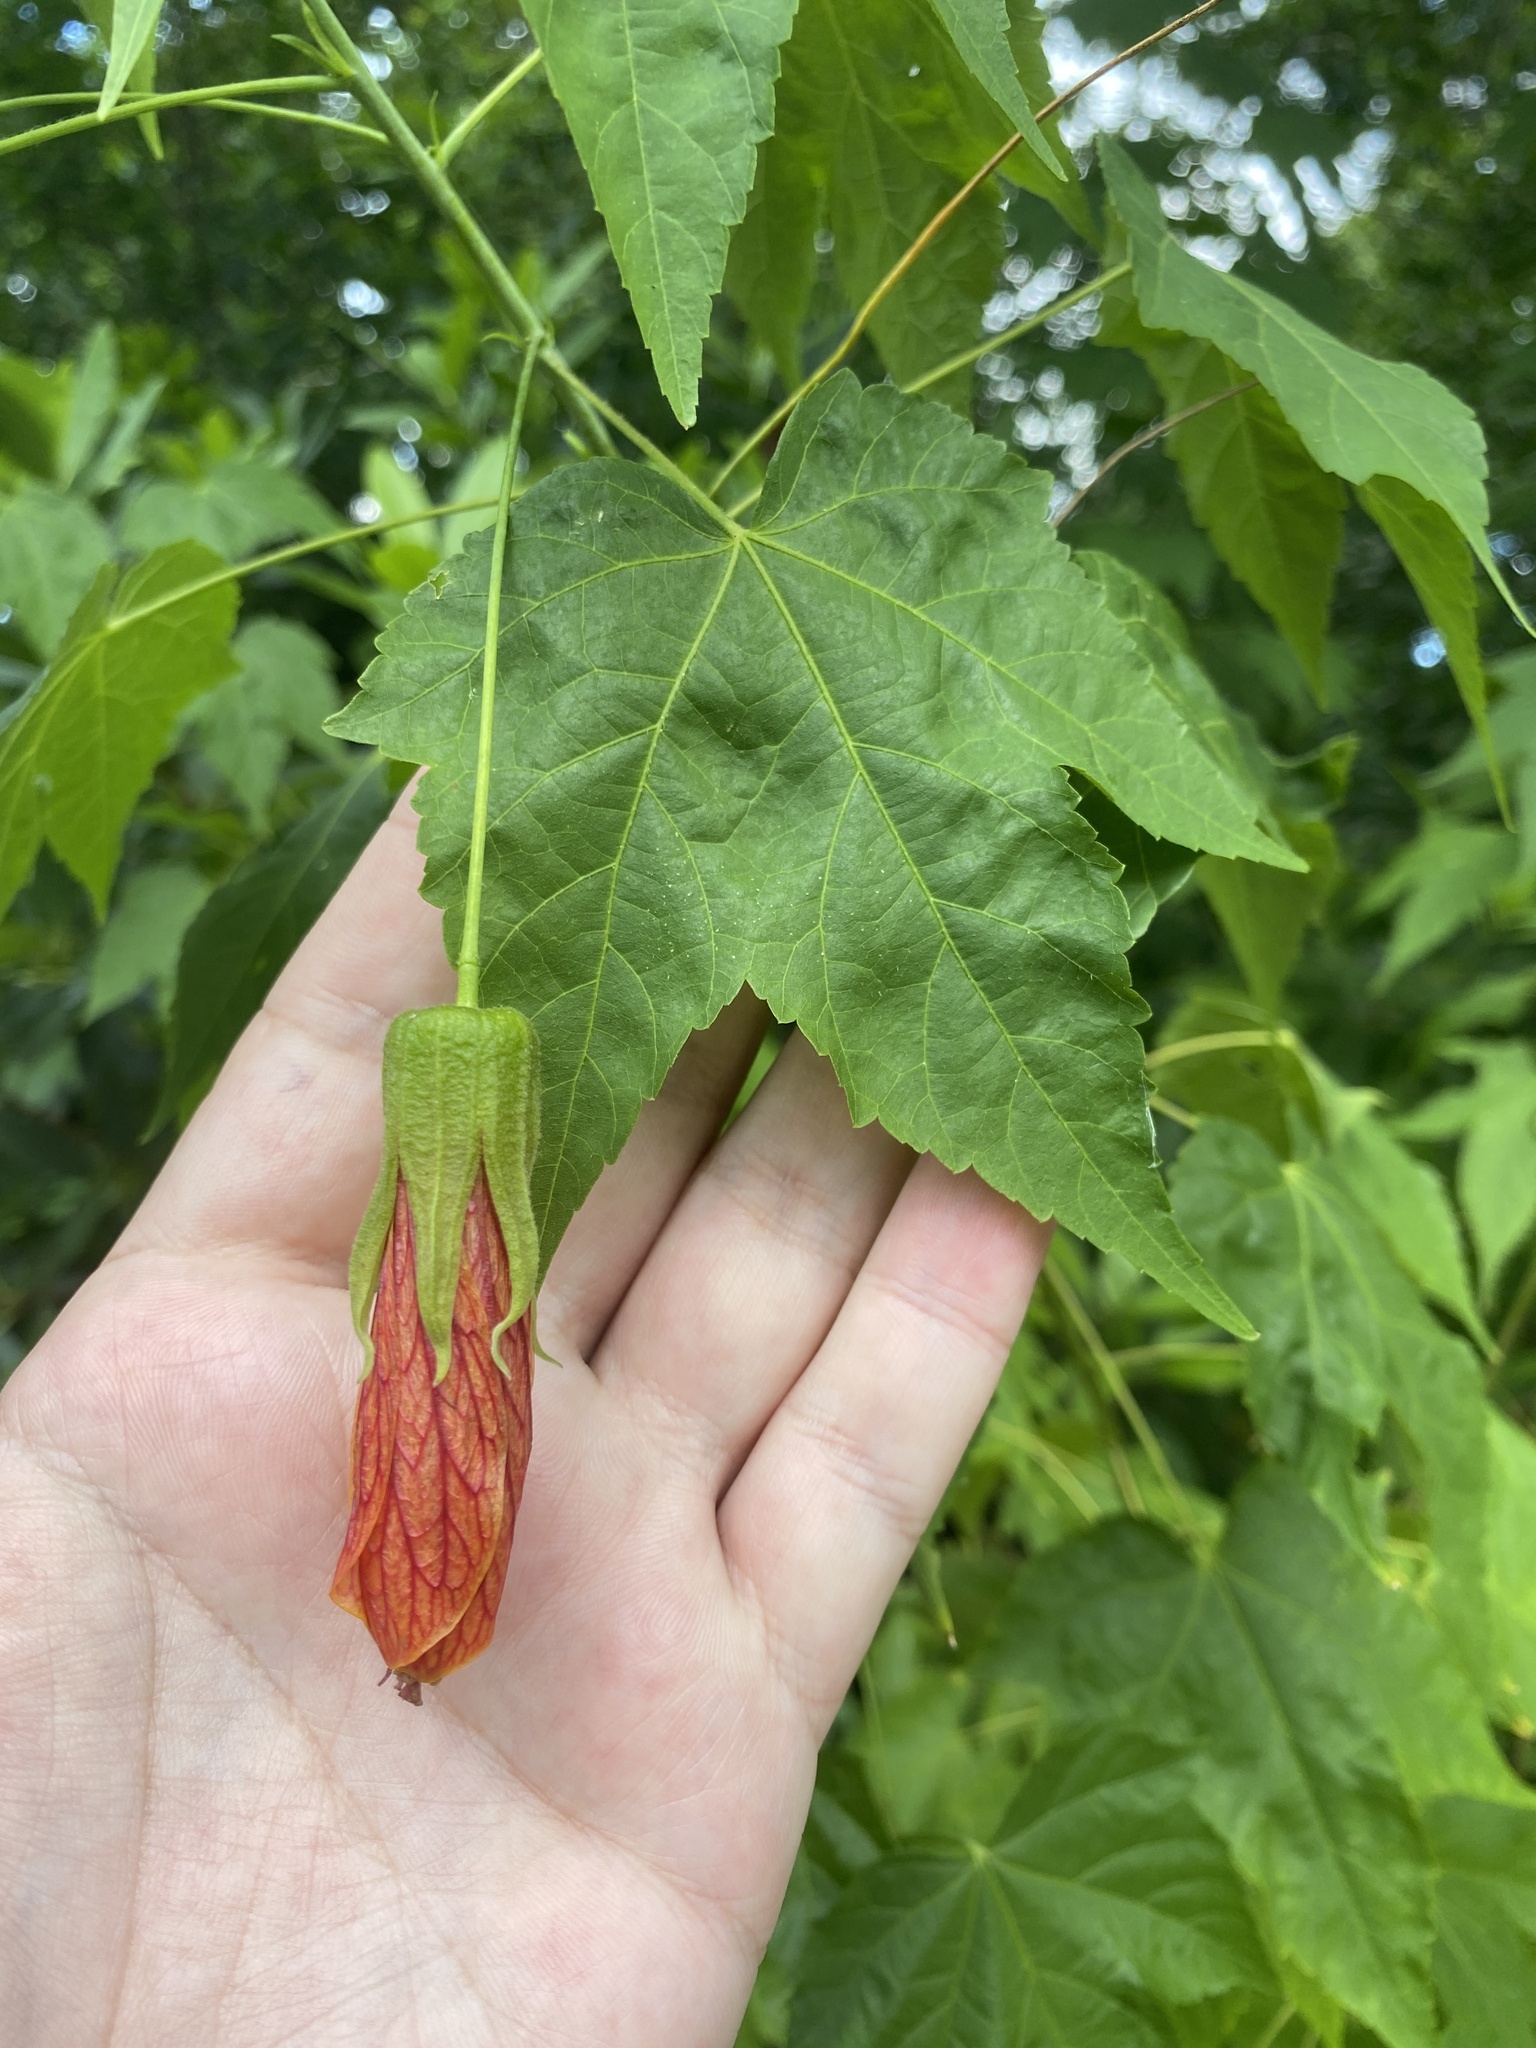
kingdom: Plantae
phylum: Tracheophyta
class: Magnoliopsida
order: Malvales
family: Malvaceae
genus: Callianthe
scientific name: Callianthe picta
